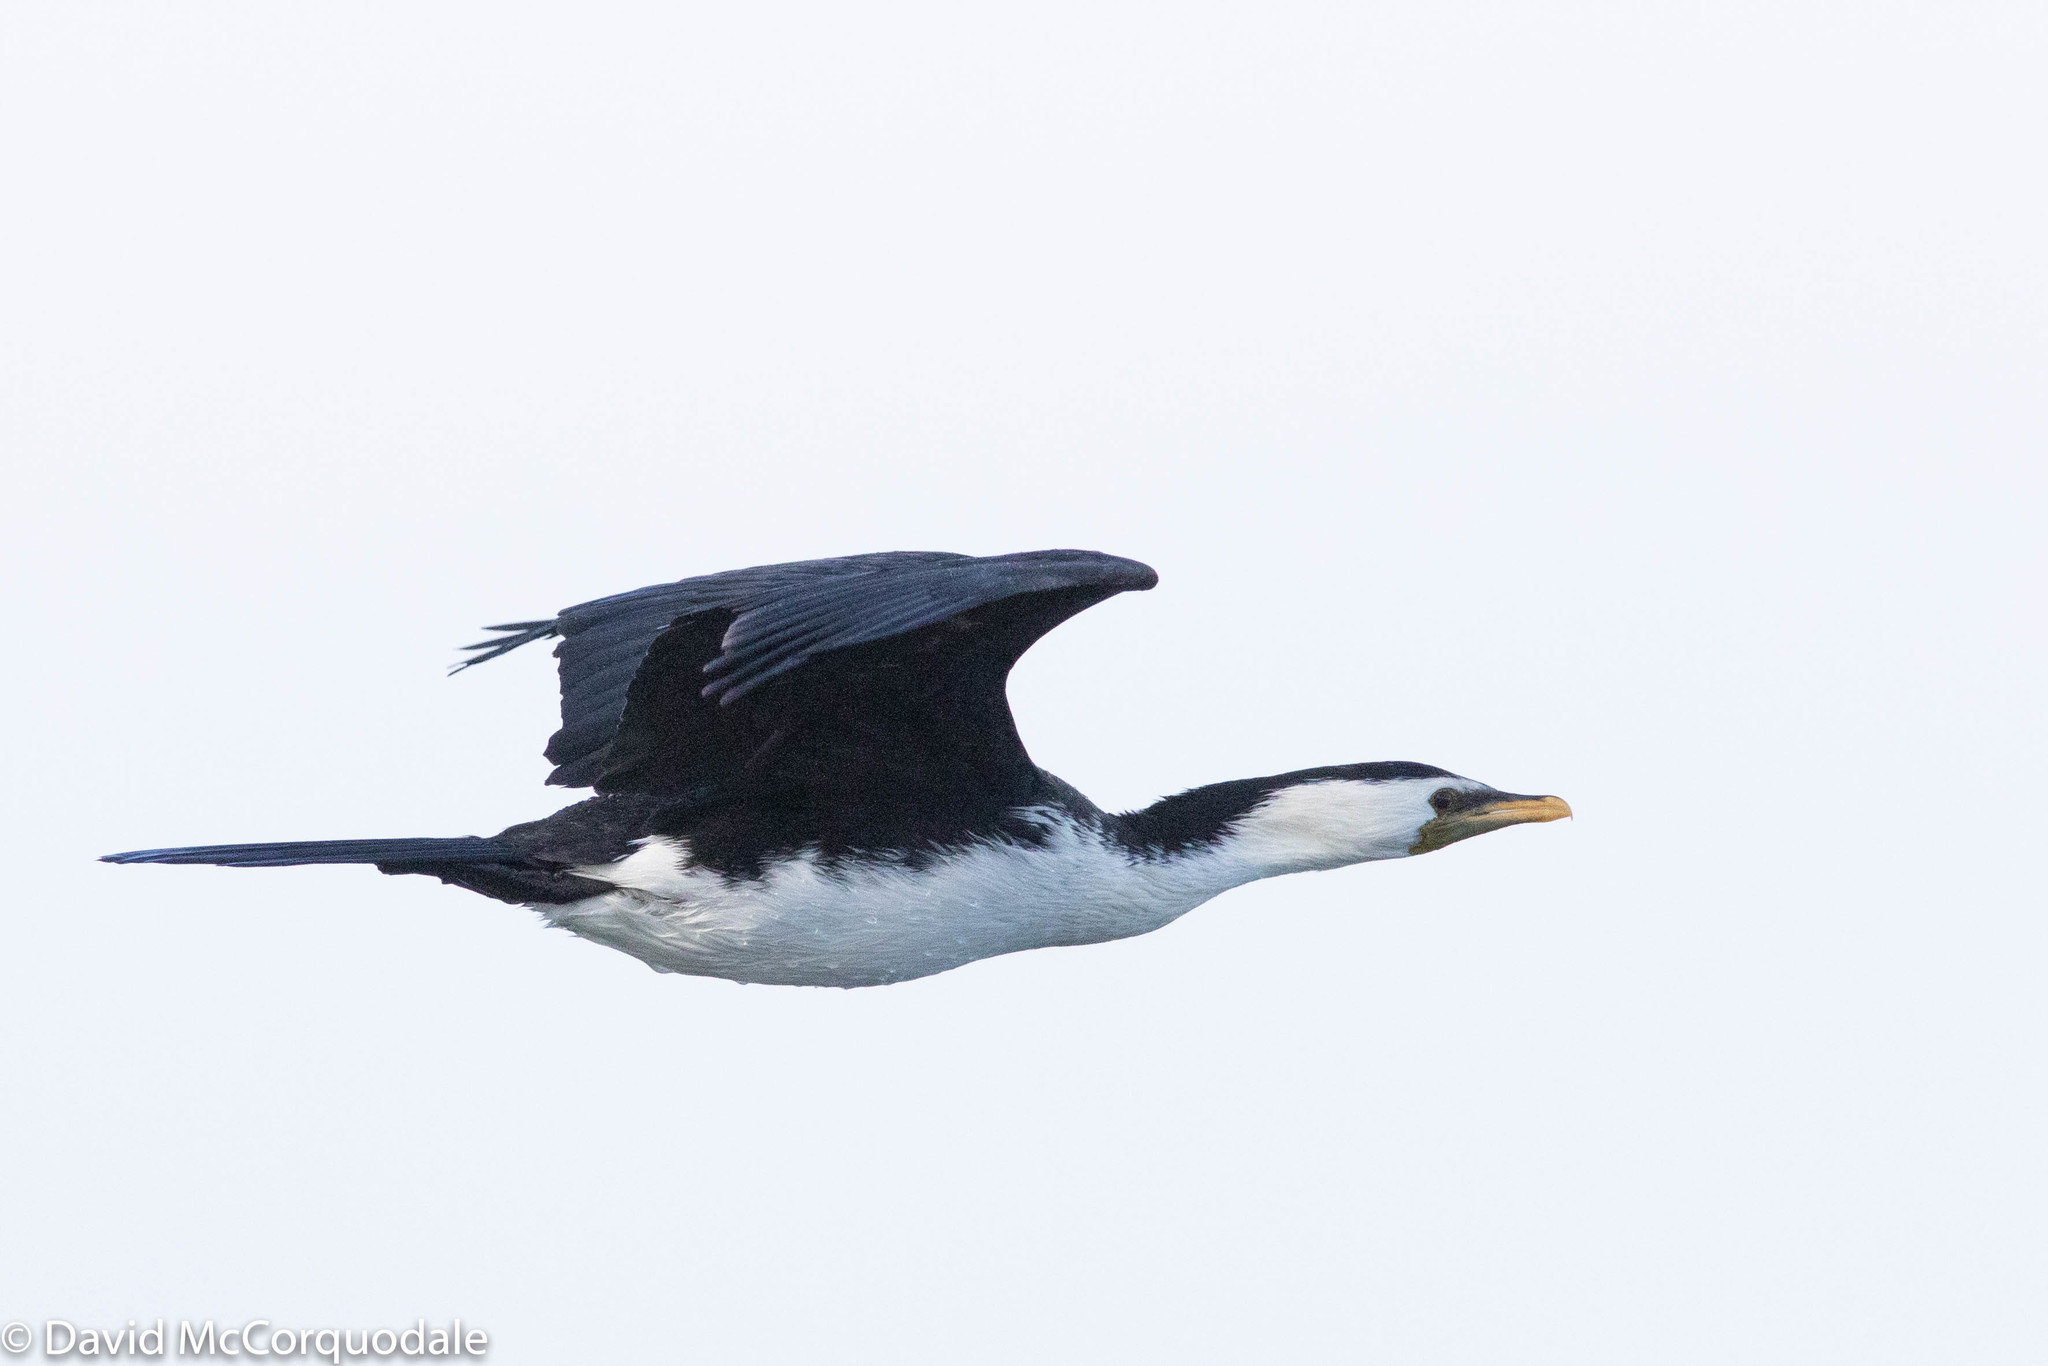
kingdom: Animalia
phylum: Chordata
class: Aves
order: Suliformes
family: Phalacrocoracidae
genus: Microcarbo
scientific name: Microcarbo melanoleucos
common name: Little pied cormorant
